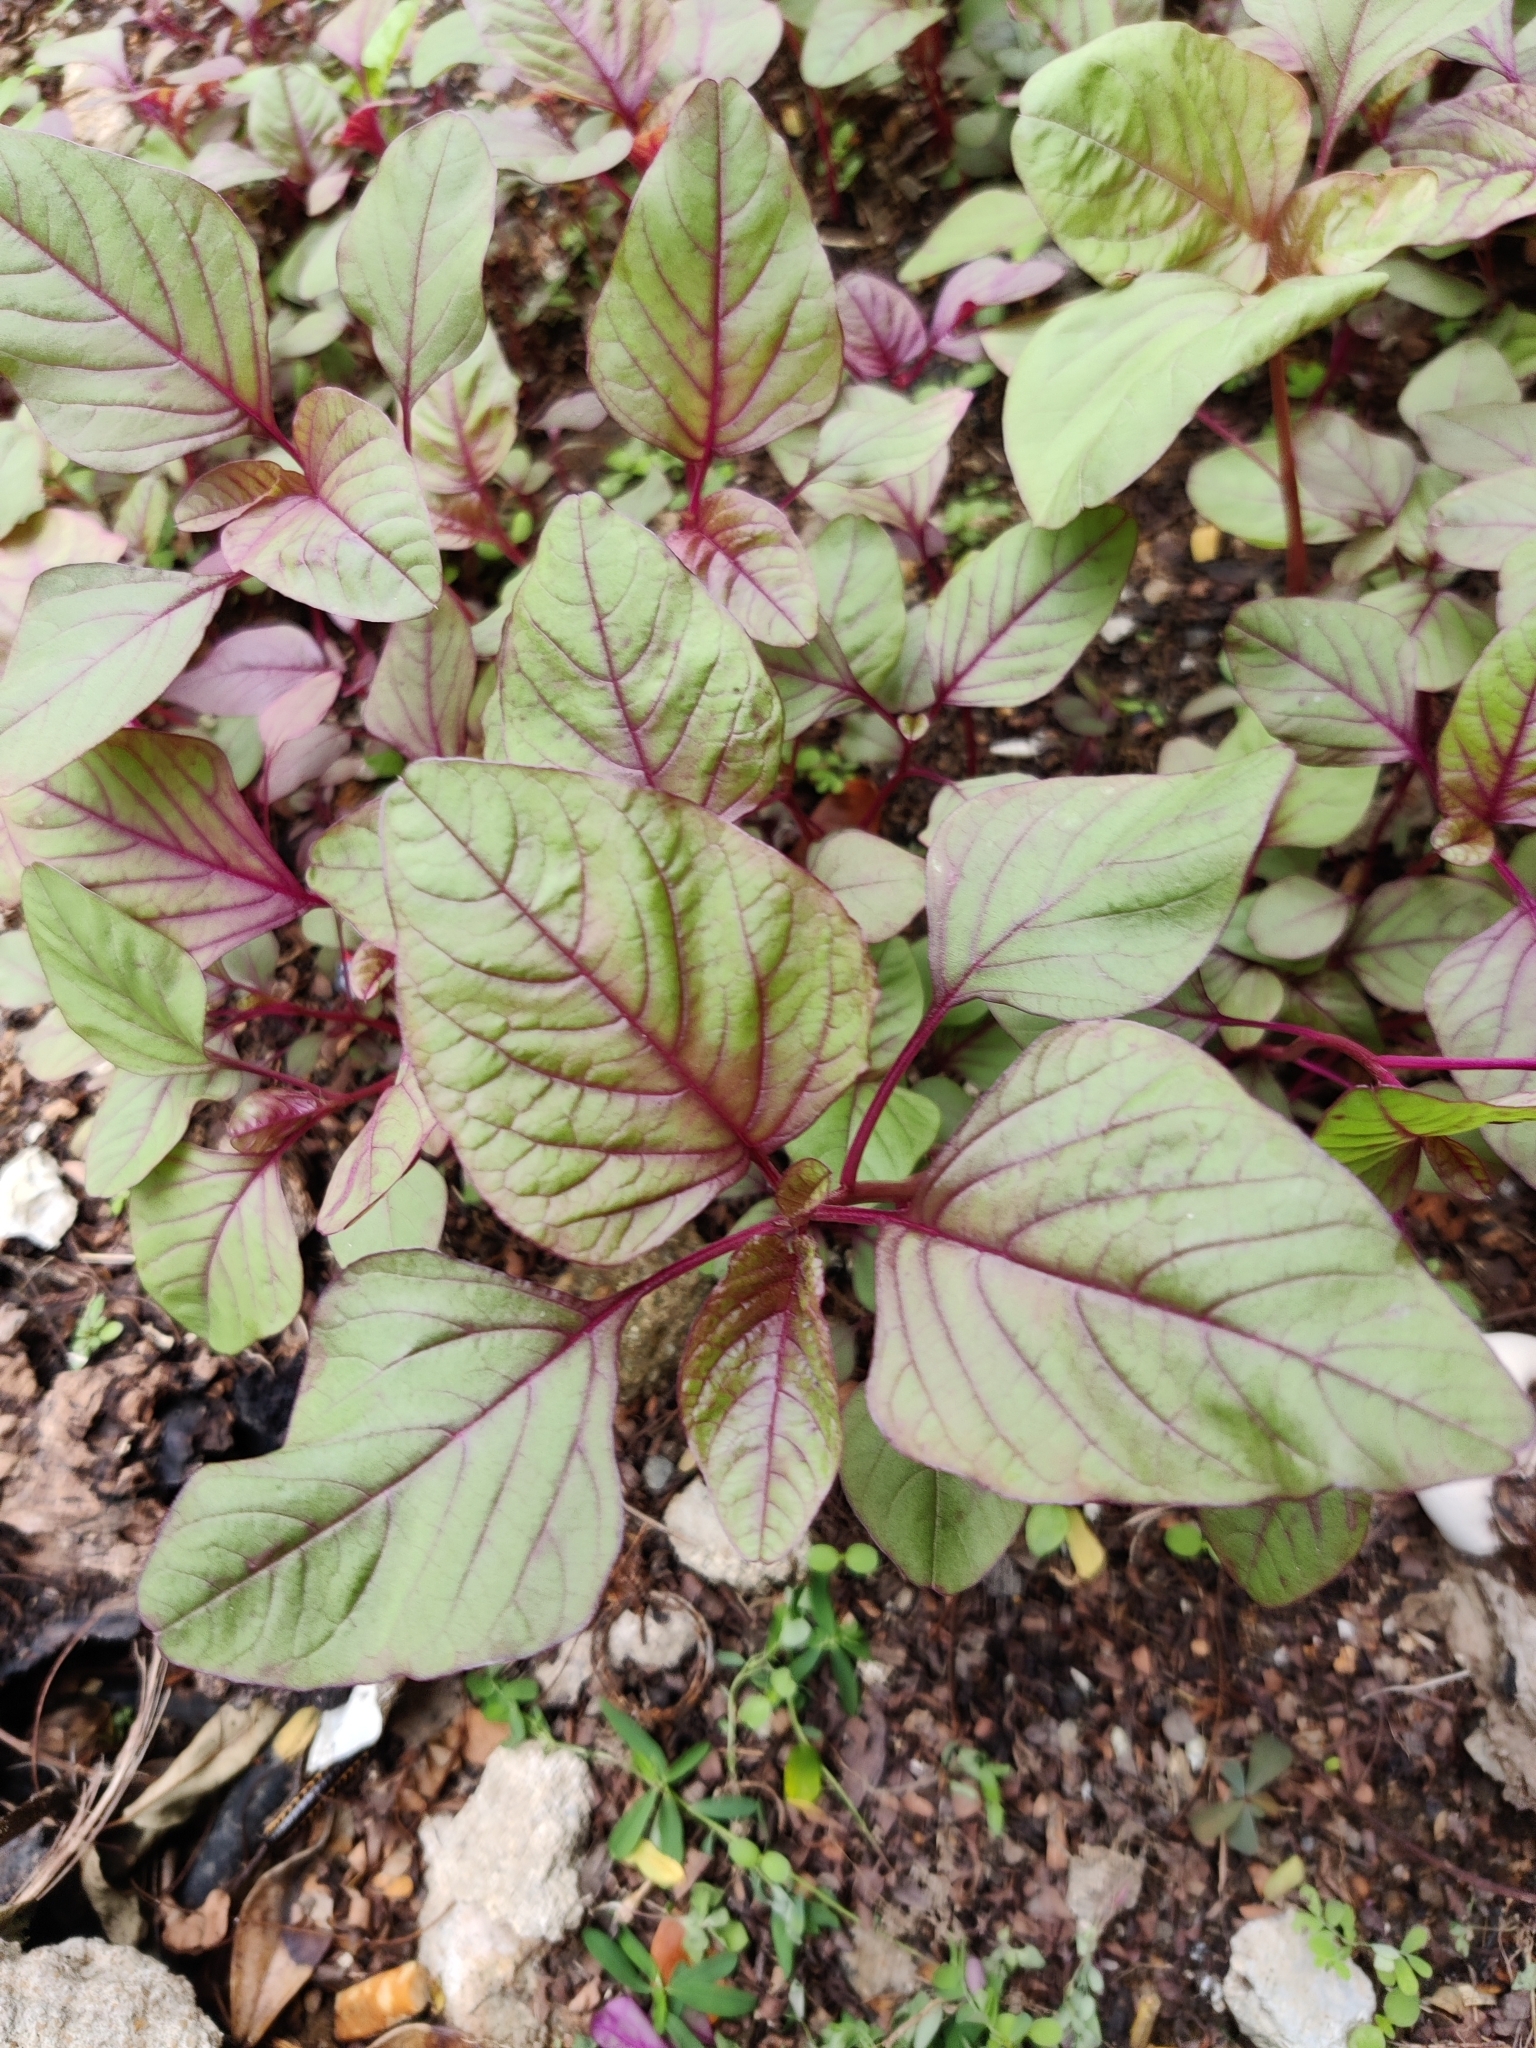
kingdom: Plantae
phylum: Tracheophyta
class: Magnoliopsida
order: Caryophyllales
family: Amaranthaceae
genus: Amaranthus
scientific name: Amaranthus tricolor
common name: Joseph's-coat
